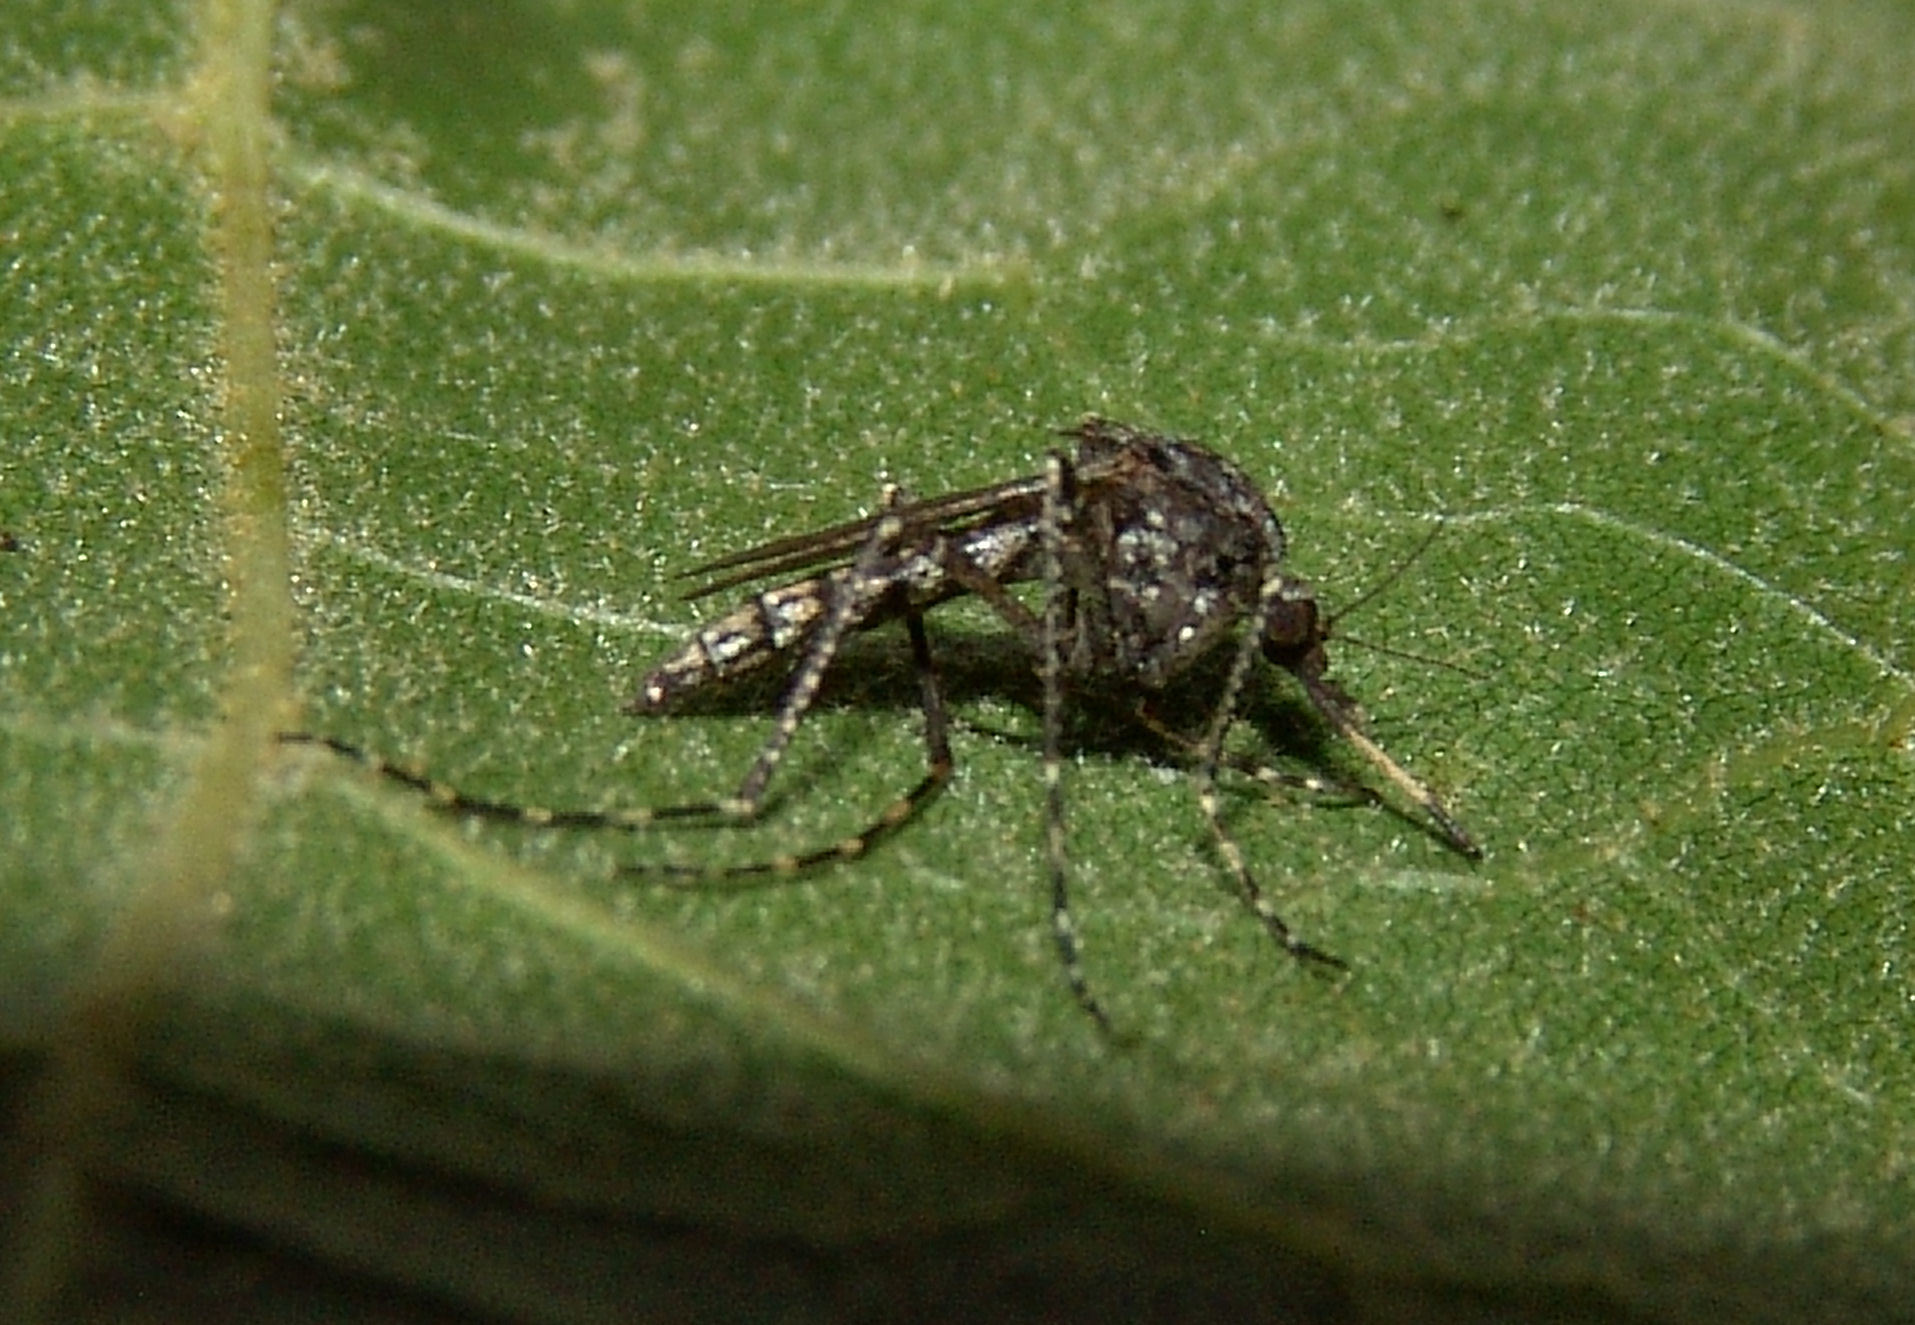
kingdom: Animalia
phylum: Arthropoda
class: Insecta
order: Diptera
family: Culicidae
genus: Psorophora
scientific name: Psorophora columbiae
